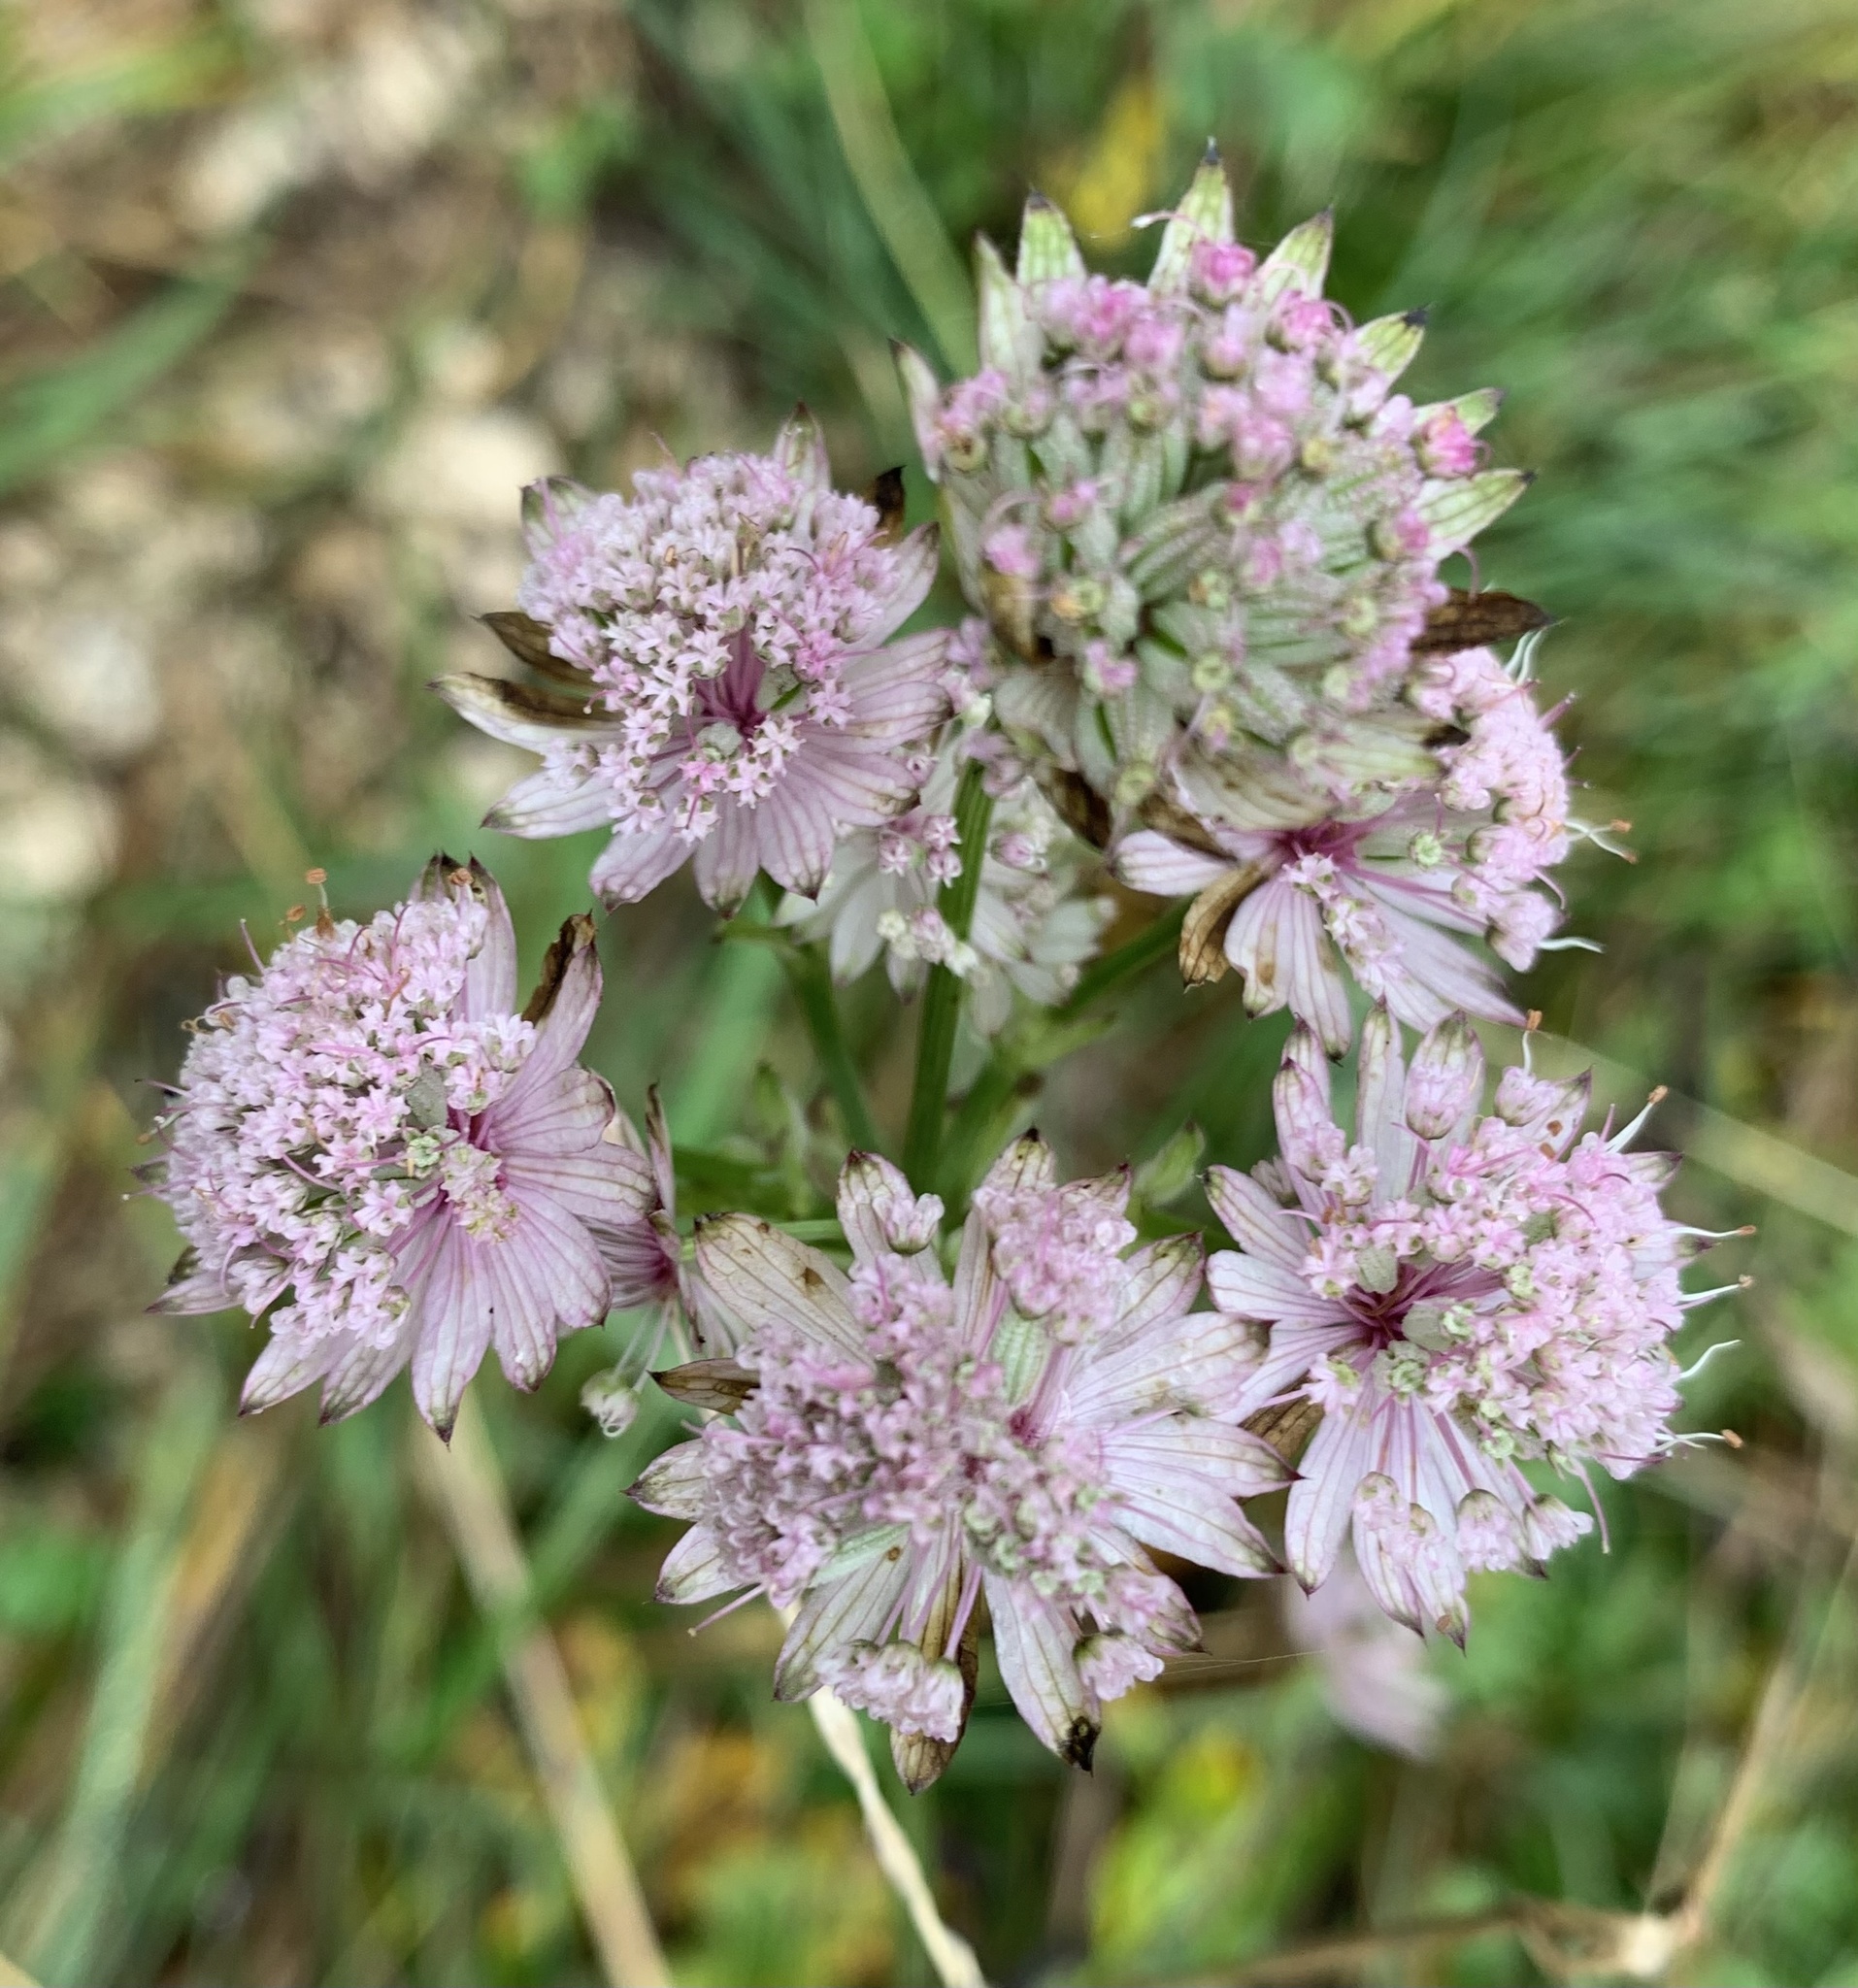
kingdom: Plantae
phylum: Tracheophyta
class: Magnoliopsida
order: Apiales
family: Apiaceae
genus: Astrantia
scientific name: Astrantia major
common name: Greater masterwort
